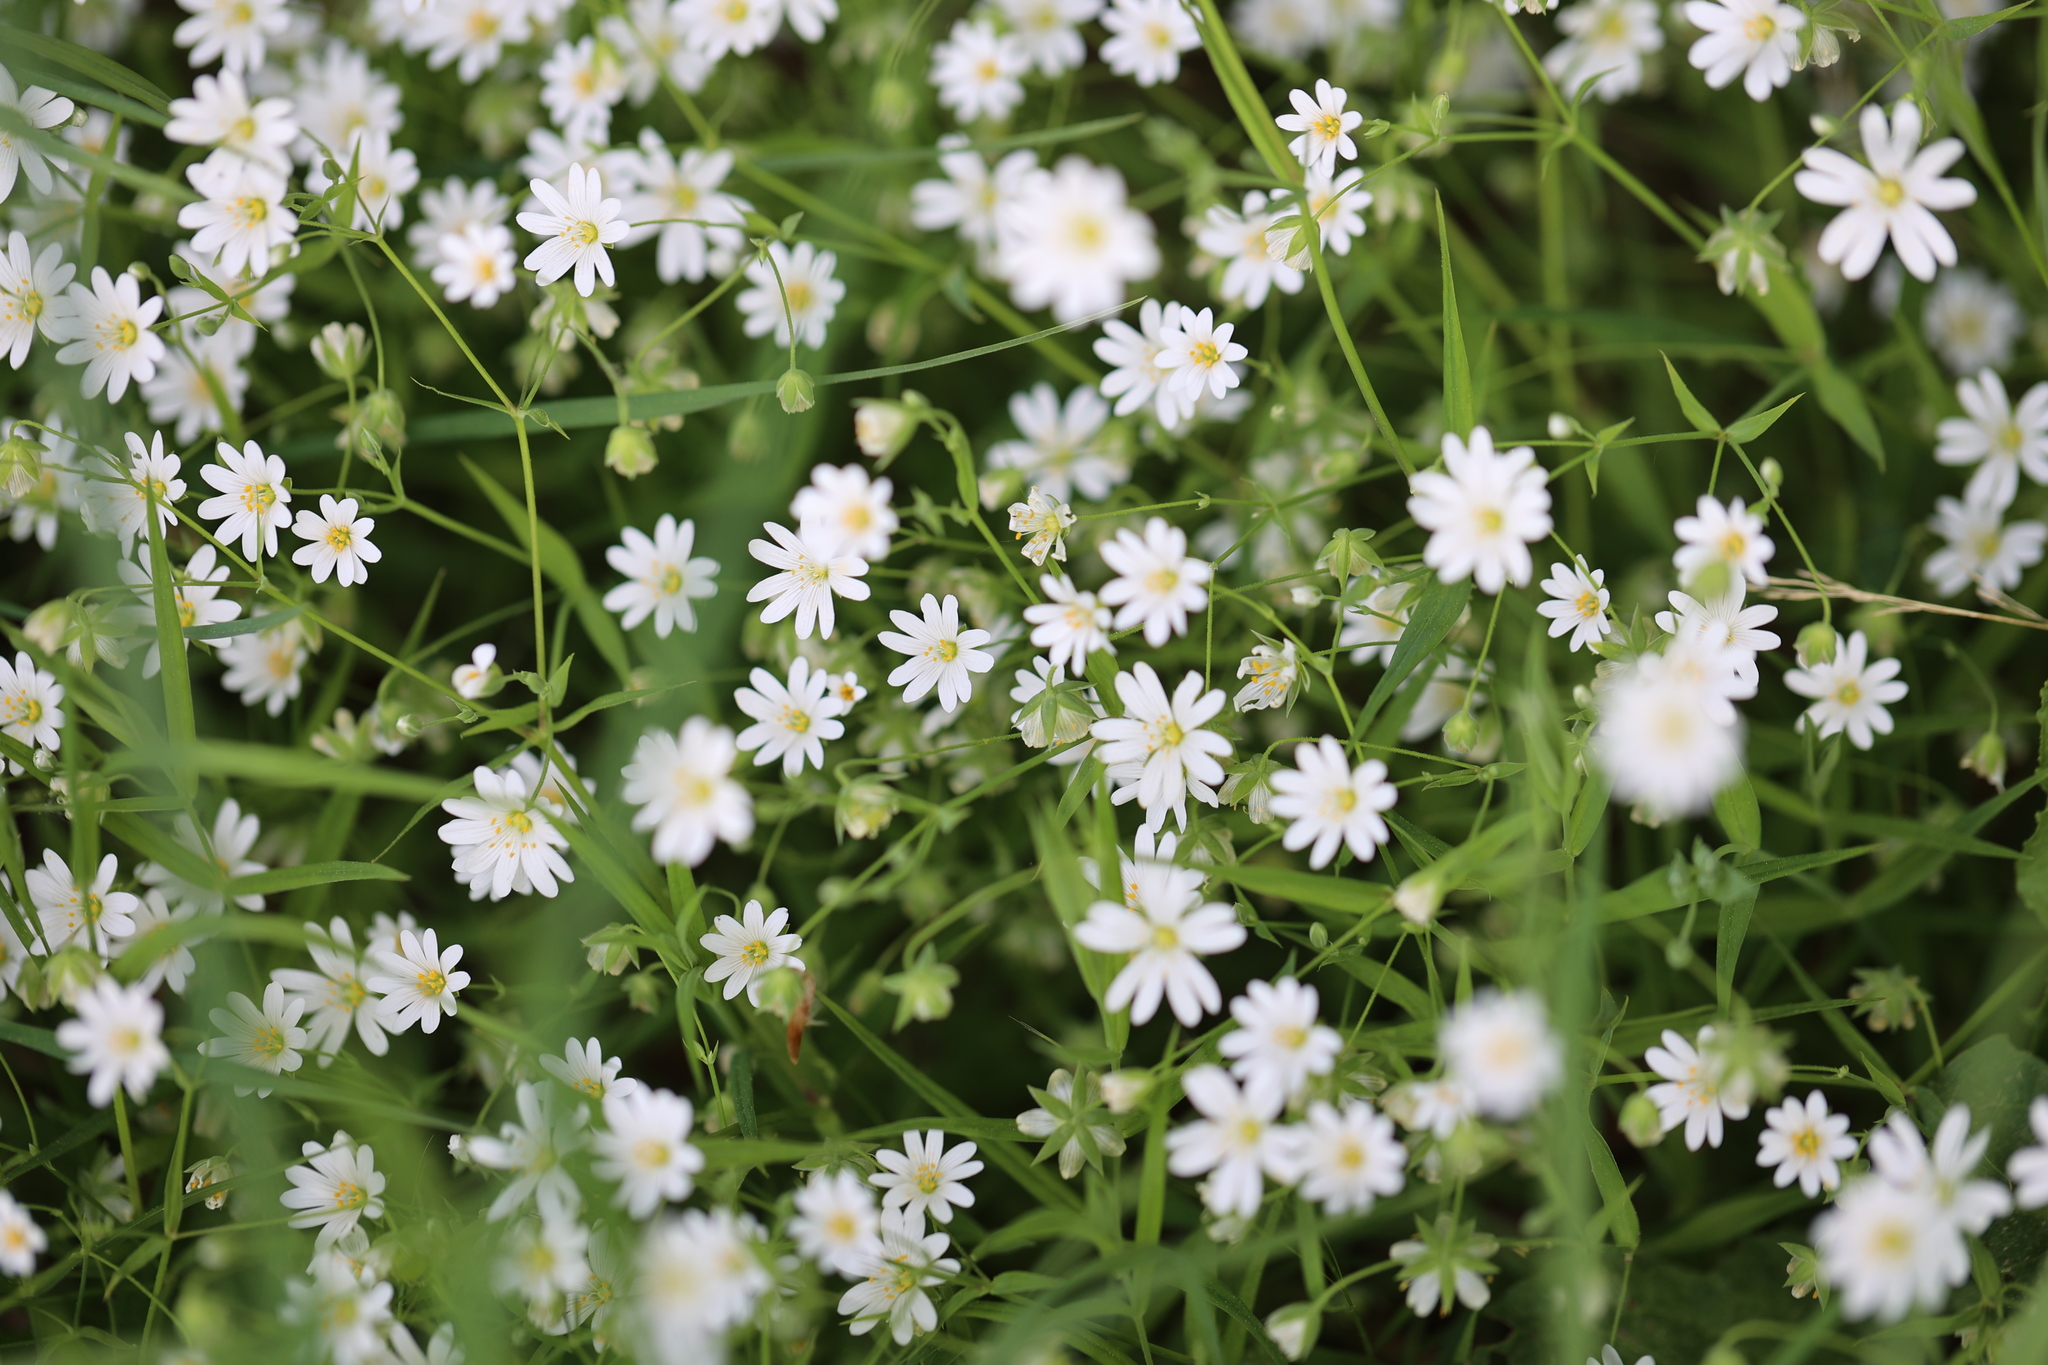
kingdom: Plantae
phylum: Tracheophyta
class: Magnoliopsida
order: Caryophyllales
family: Caryophyllaceae
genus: Rabelera
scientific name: Rabelera holostea
